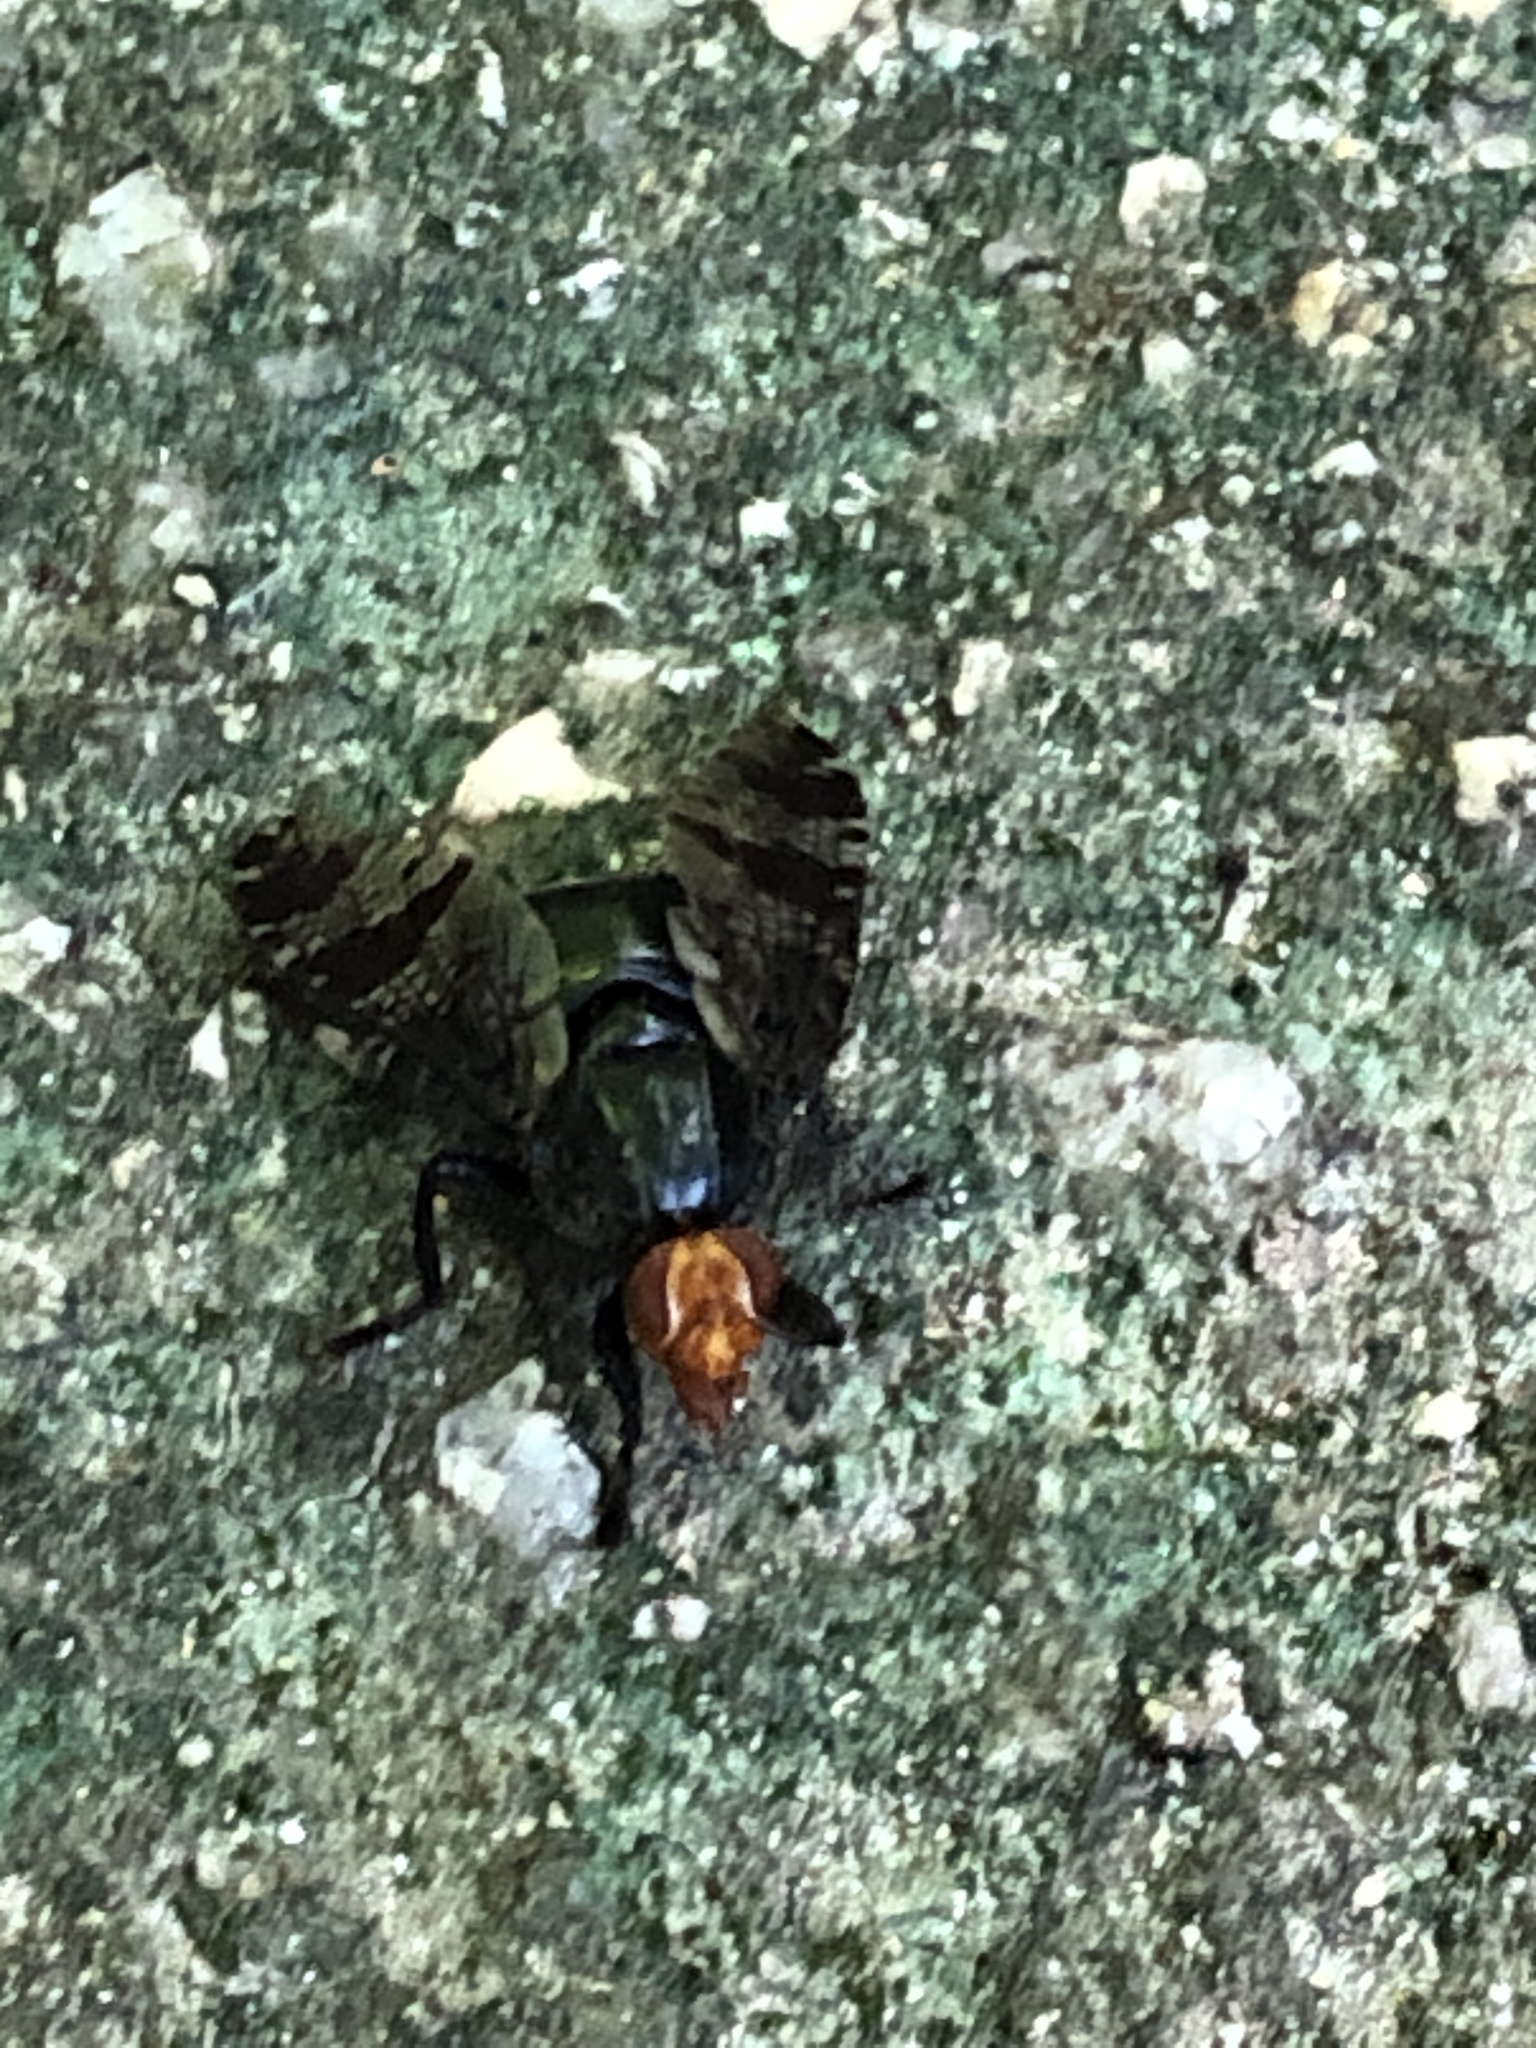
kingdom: Animalia
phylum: Arthropoda
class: Insecta
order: Diptera
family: Platystomatidae
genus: Prosthiochaeta
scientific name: Prosthiochaeta bifasciata
